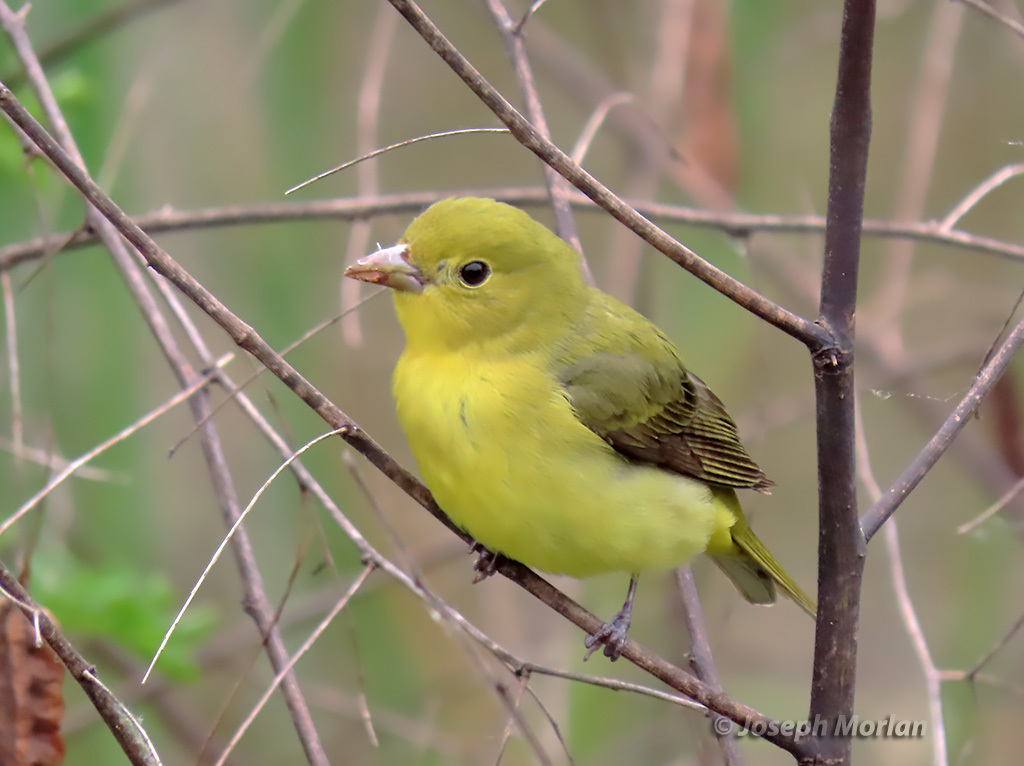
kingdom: Animalia
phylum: Chordata
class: Aves
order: Passeriformes
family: Cardinalidae
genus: Piranga
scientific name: Piranga olivacea
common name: Scarlet tanager
